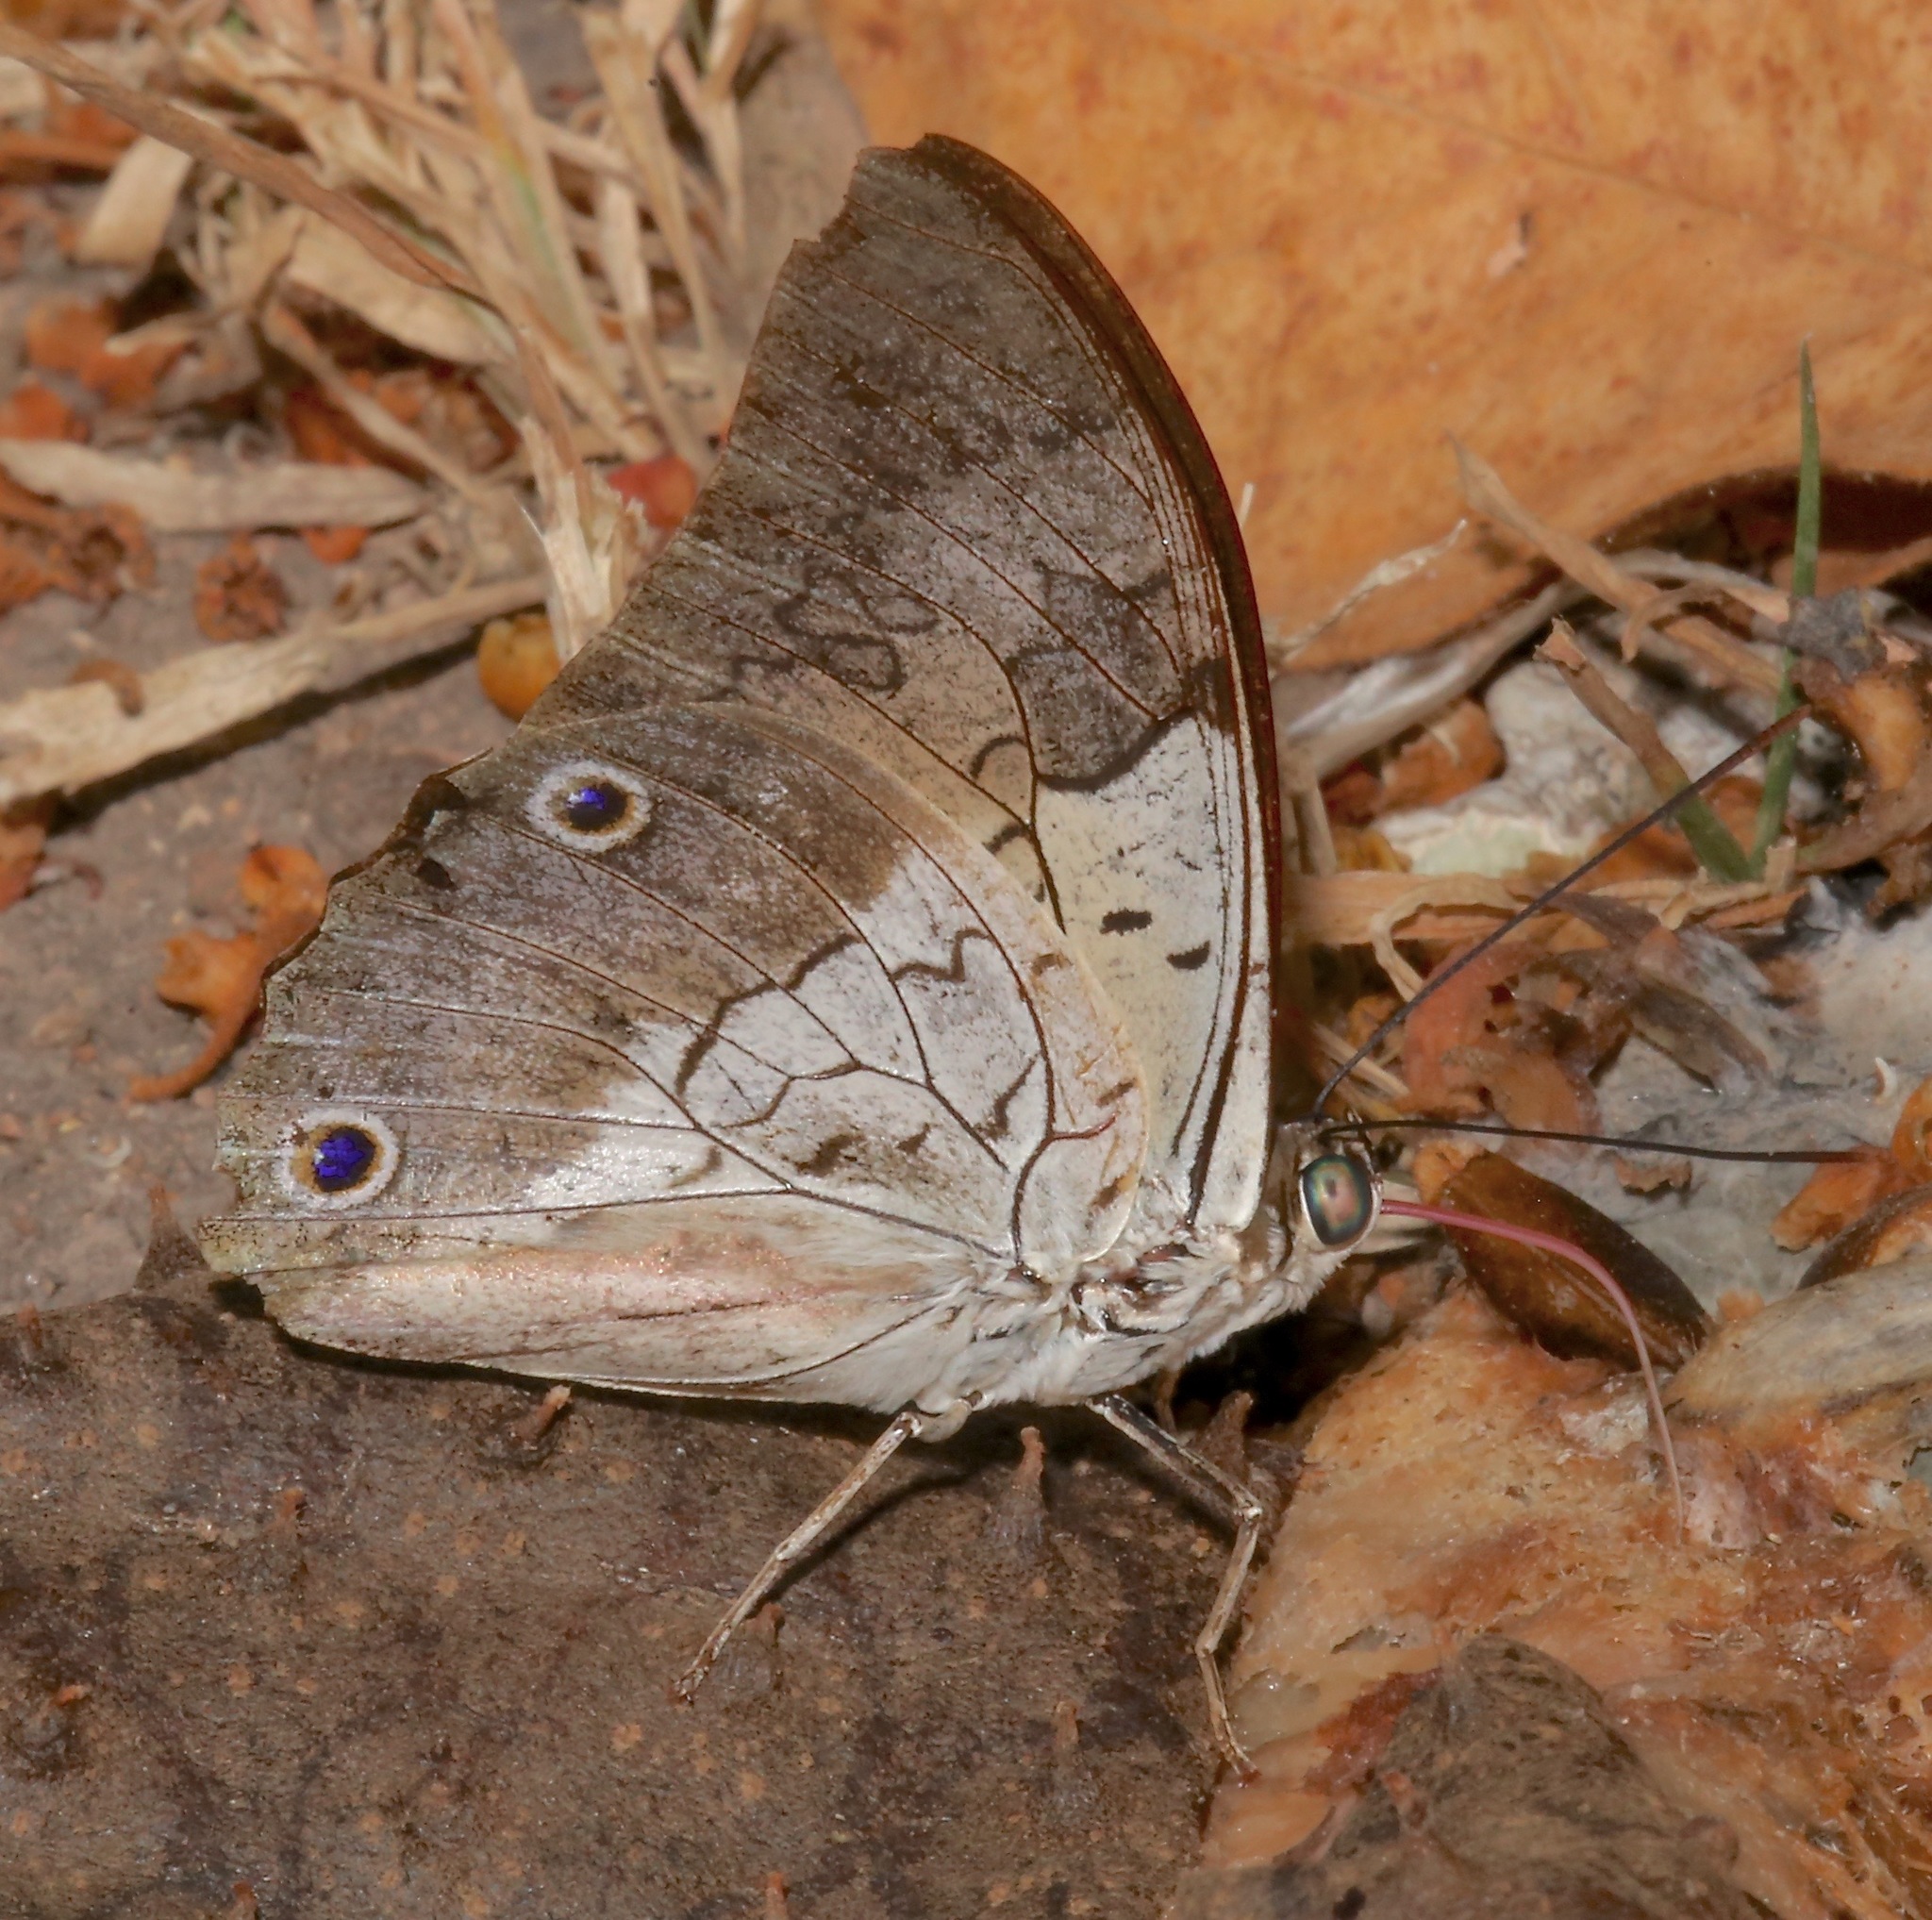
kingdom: Animalia
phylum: Arthropoda
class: Insecta
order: Lepidoptera
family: Nymphalidae
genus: Prepona
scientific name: Prepona laertes
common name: Butterfly
